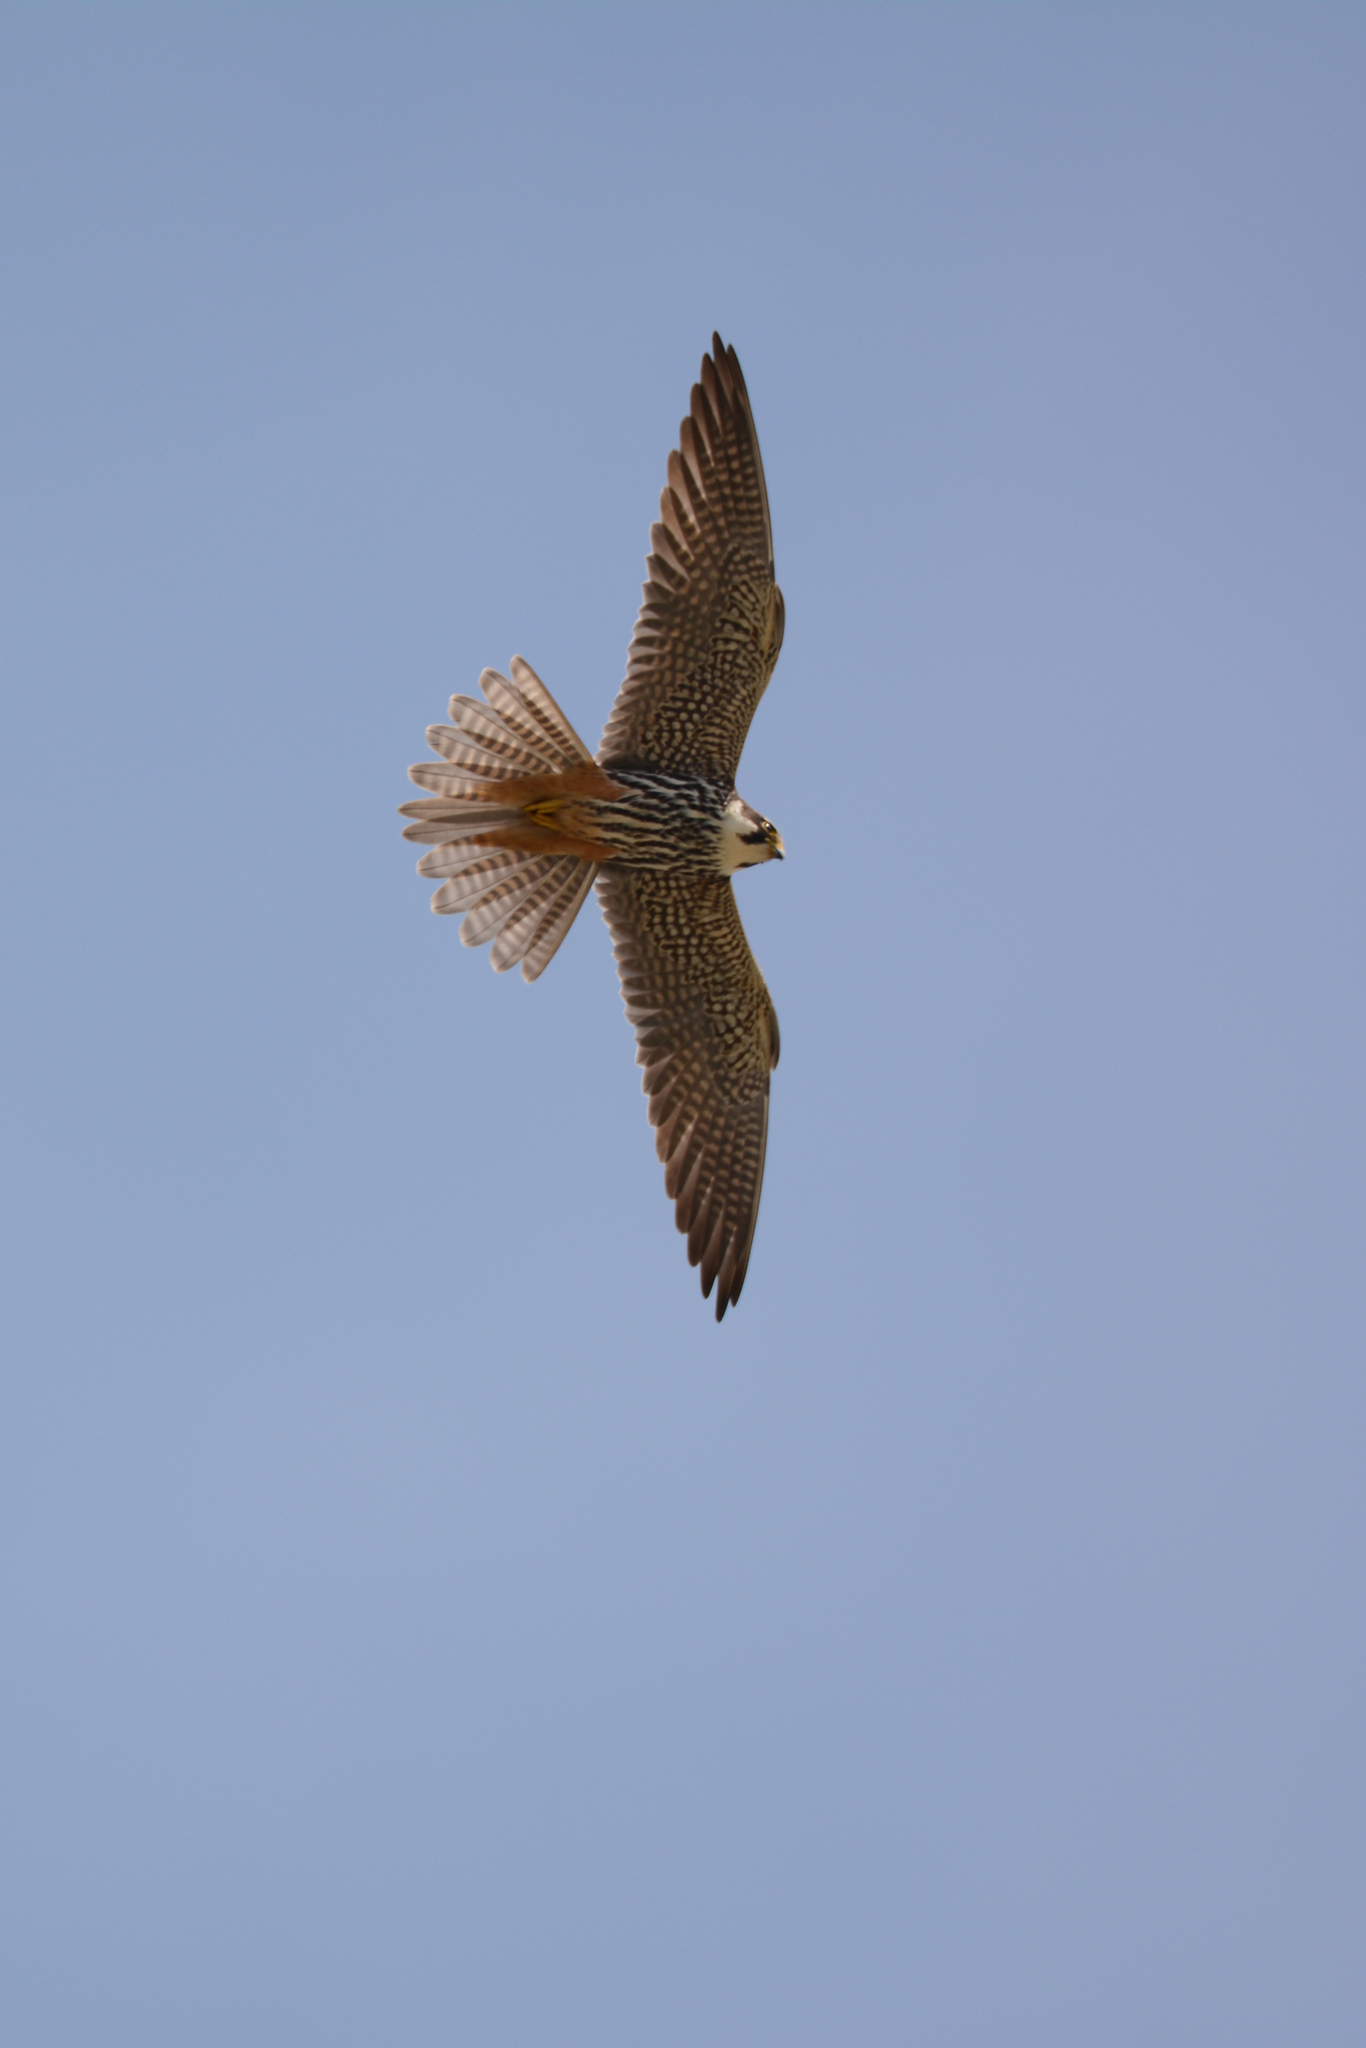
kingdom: Animalia
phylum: Chordata
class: Aves
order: Falconiformes
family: Falconidae
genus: Falco
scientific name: Falco subbuteo
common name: Eurasian hobby
